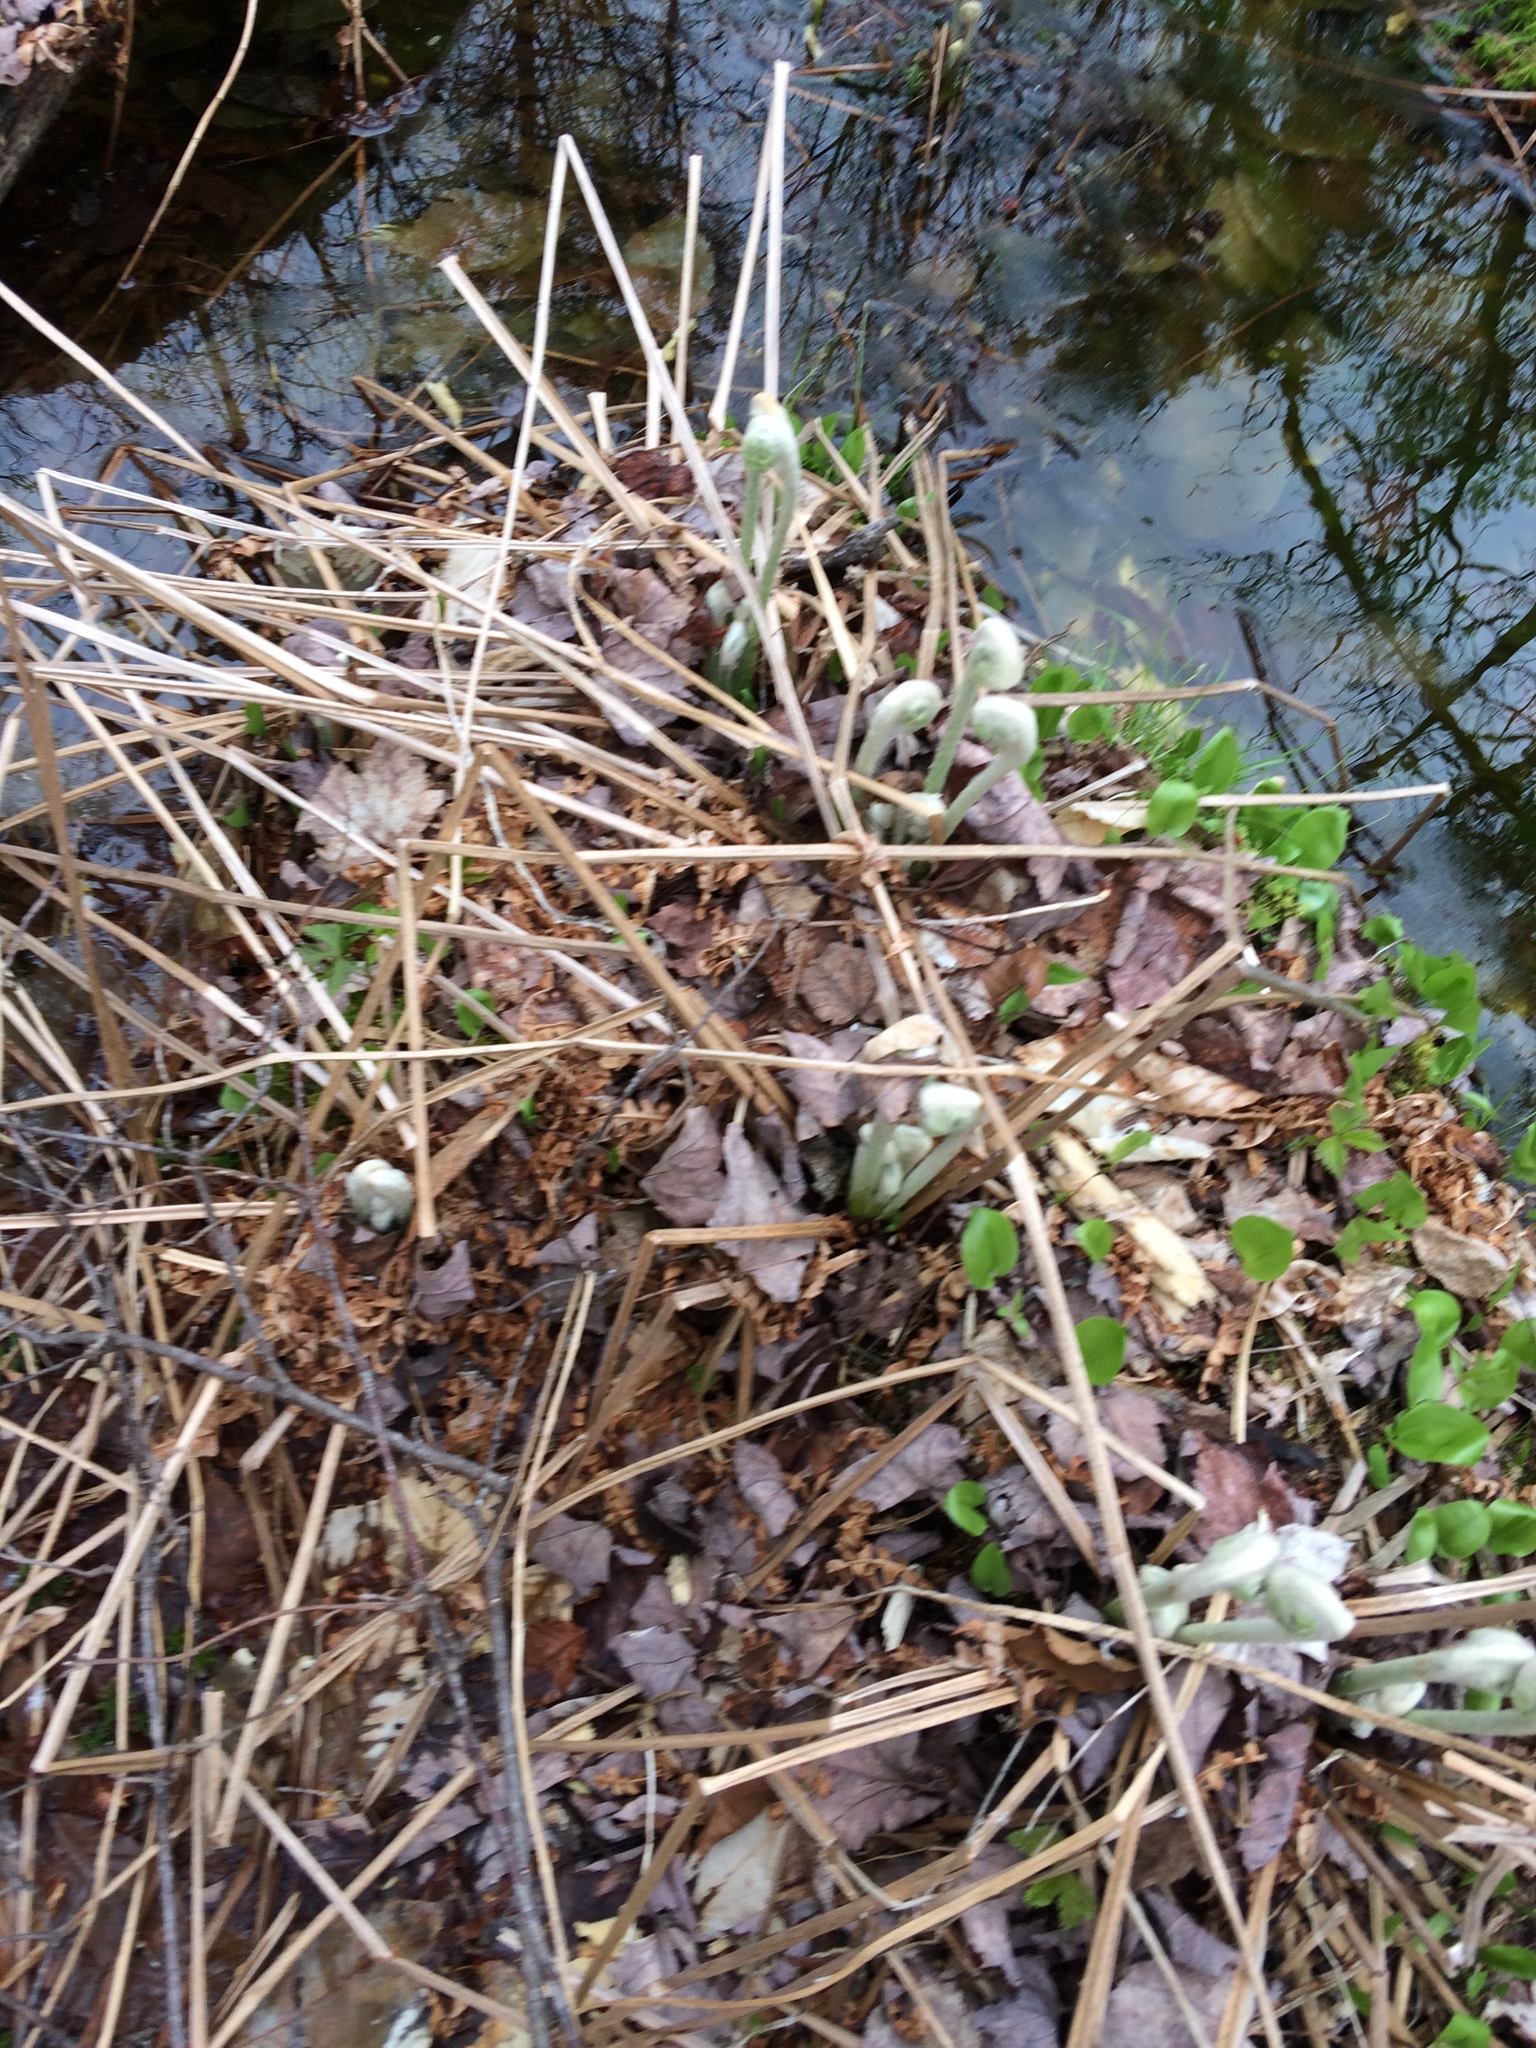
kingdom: Plantae
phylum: Tracheophyta
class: Polypodiopsida
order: Osmundales
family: Osmundaceae
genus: Osmundastrum
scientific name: Osmundastrum cinnamomeum
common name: Cinnamon fern
